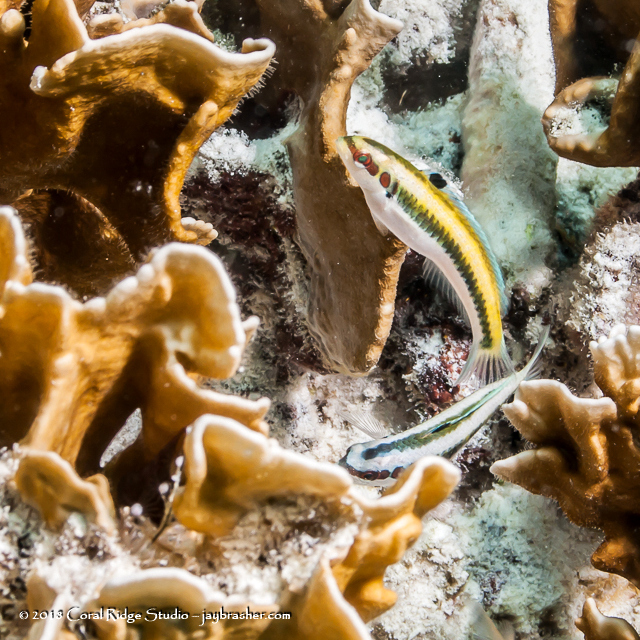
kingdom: Animalia
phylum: Chordata
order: Perciformes
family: Labridae
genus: Thalassoma
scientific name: Thalassoma bifasciatum
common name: Bluehead wrasse
